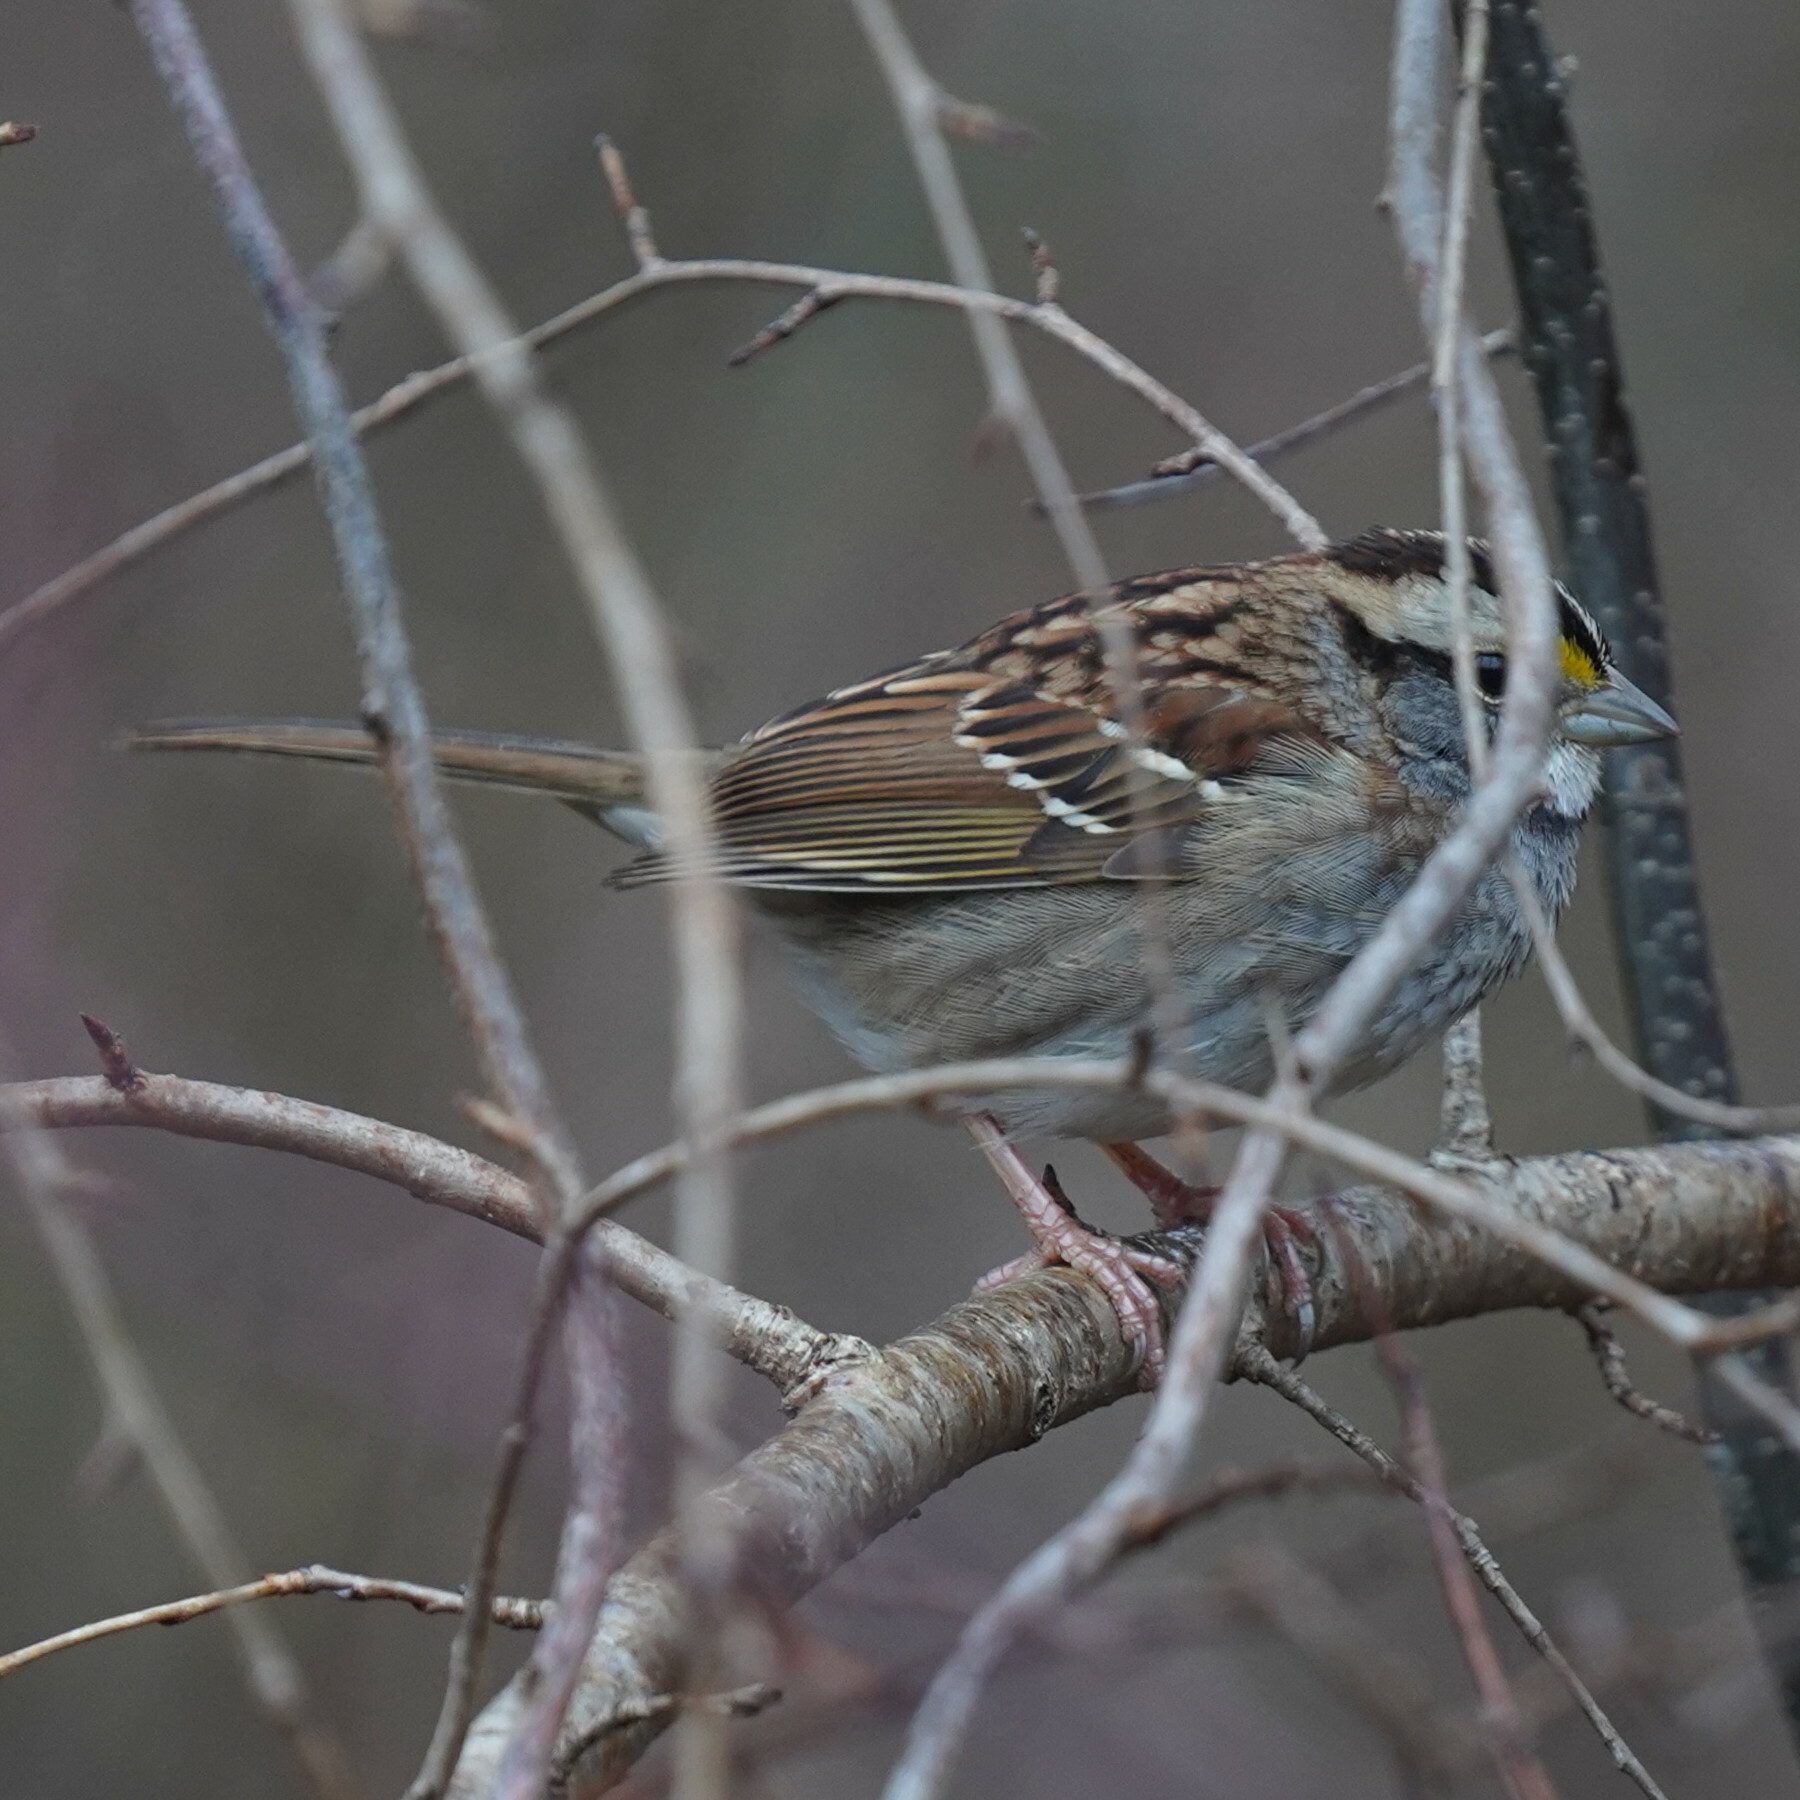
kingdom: Animalia
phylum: Chordata
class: Aves
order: Passeriformes
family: Passerellidae
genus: Zonotrichia
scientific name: Zonotrichia albicollis
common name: White-throated sparrow
